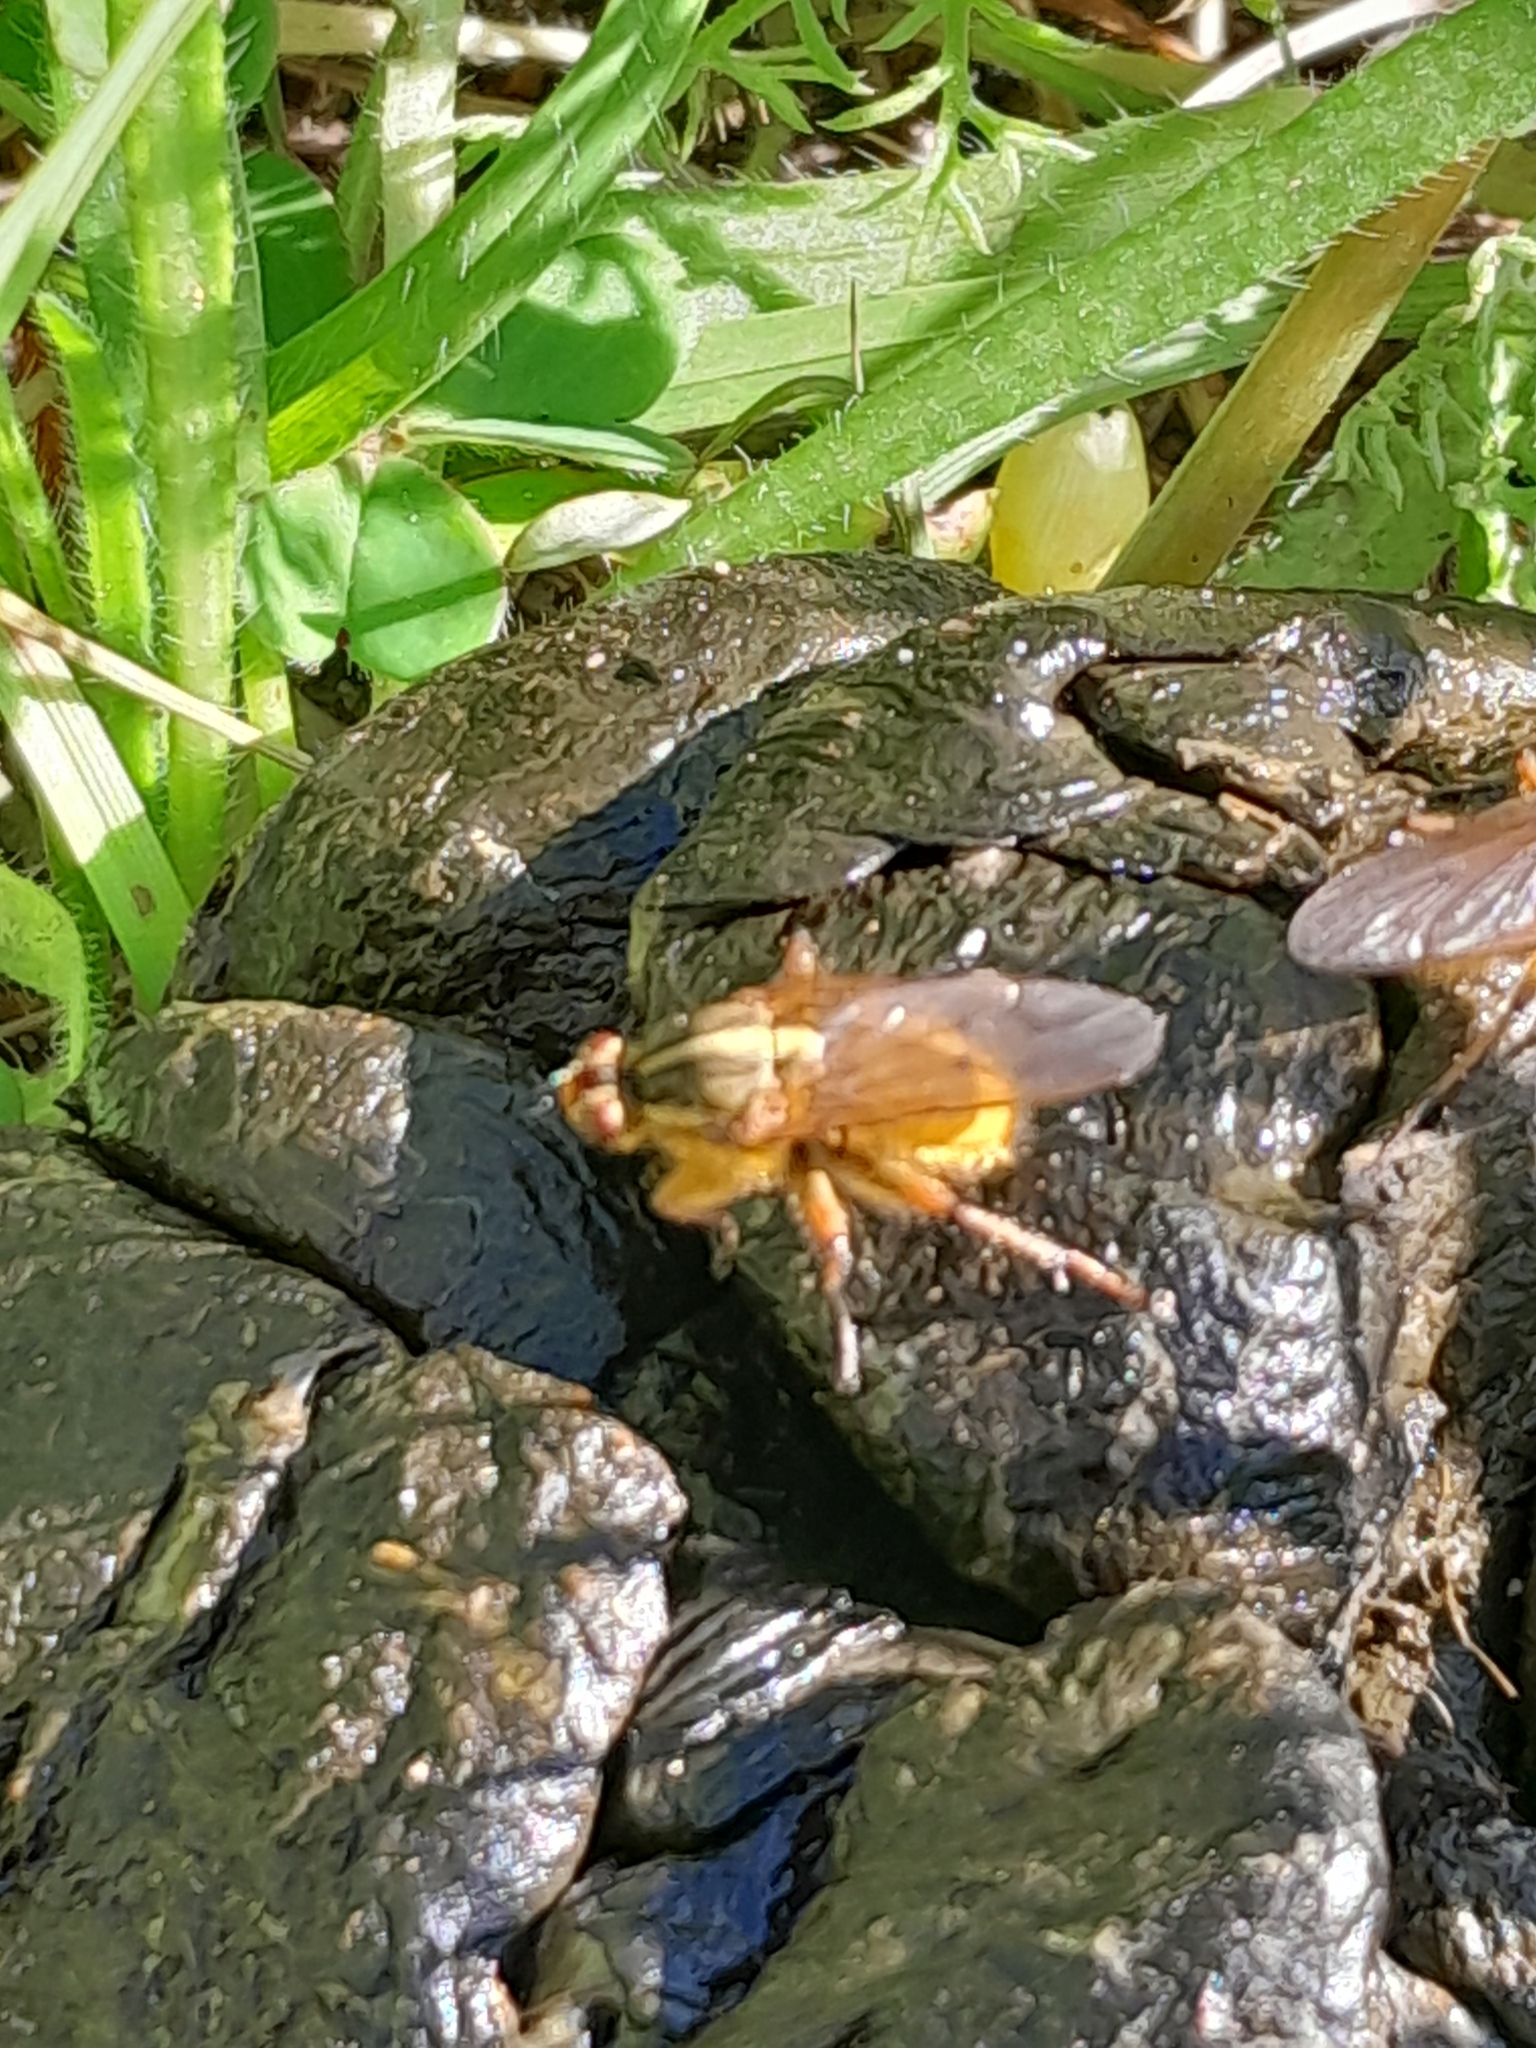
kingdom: Animalia
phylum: Chordata
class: Mammalia
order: Rodentia
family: Hystricidae
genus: Hystrix
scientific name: Hystrix africaeaustralis
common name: Cape porcupine
